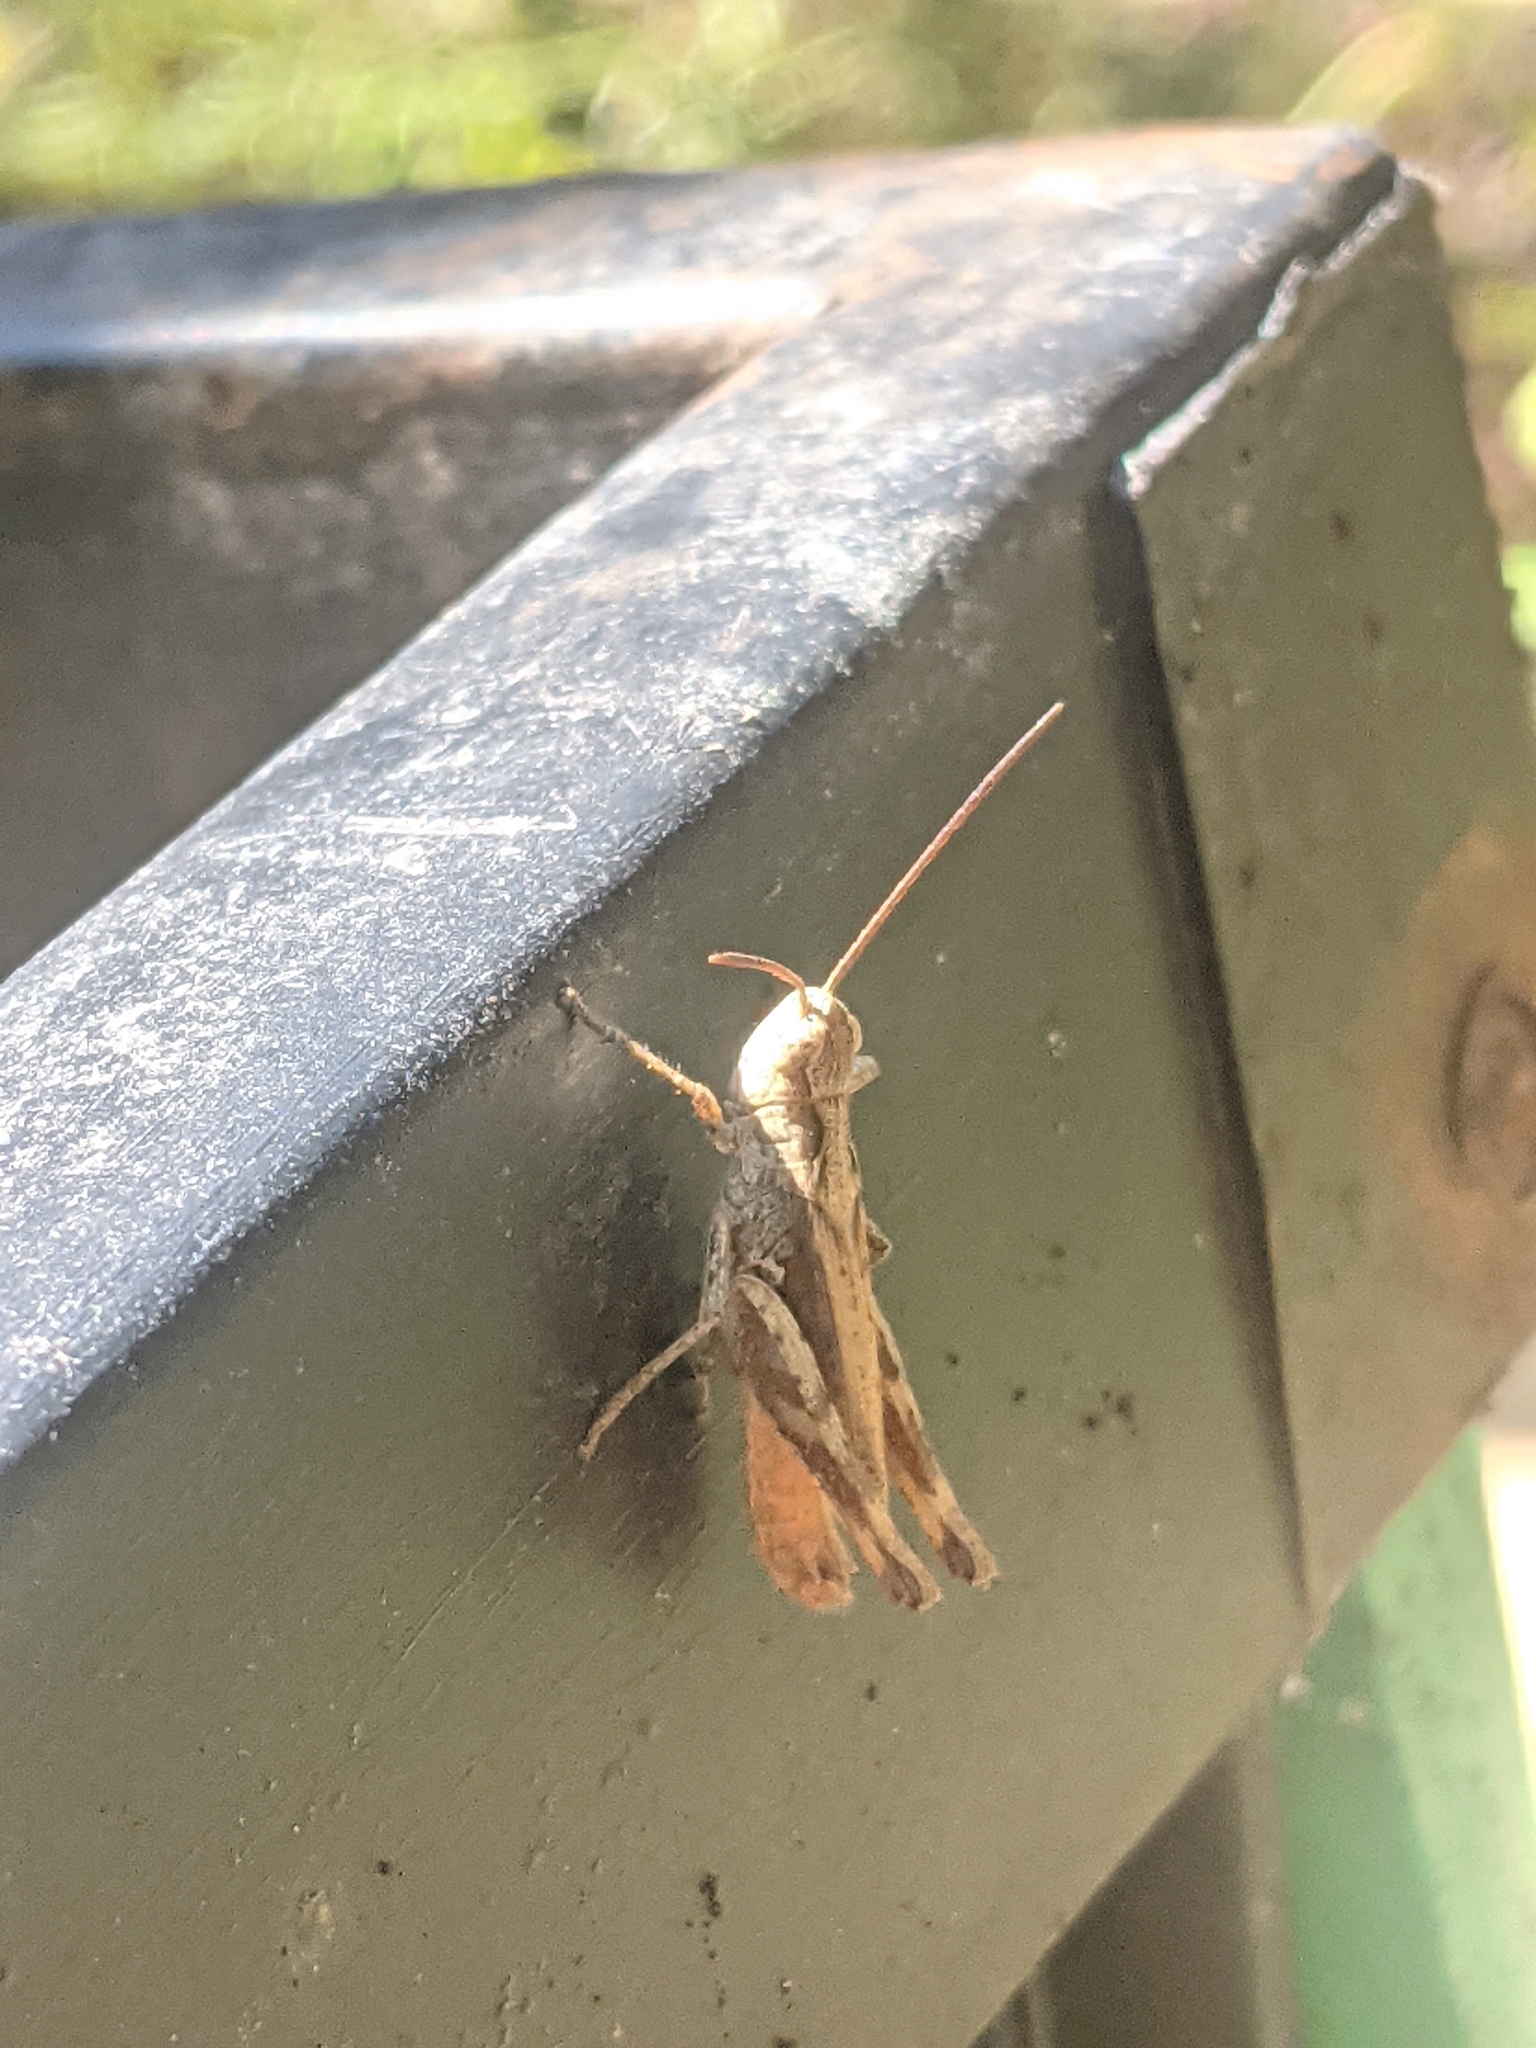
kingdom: Animalia
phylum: Arthropoda
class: Insecta
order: Orthoptera
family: Acrididae
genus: Chorthippus
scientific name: Chorthippus macrocerus
